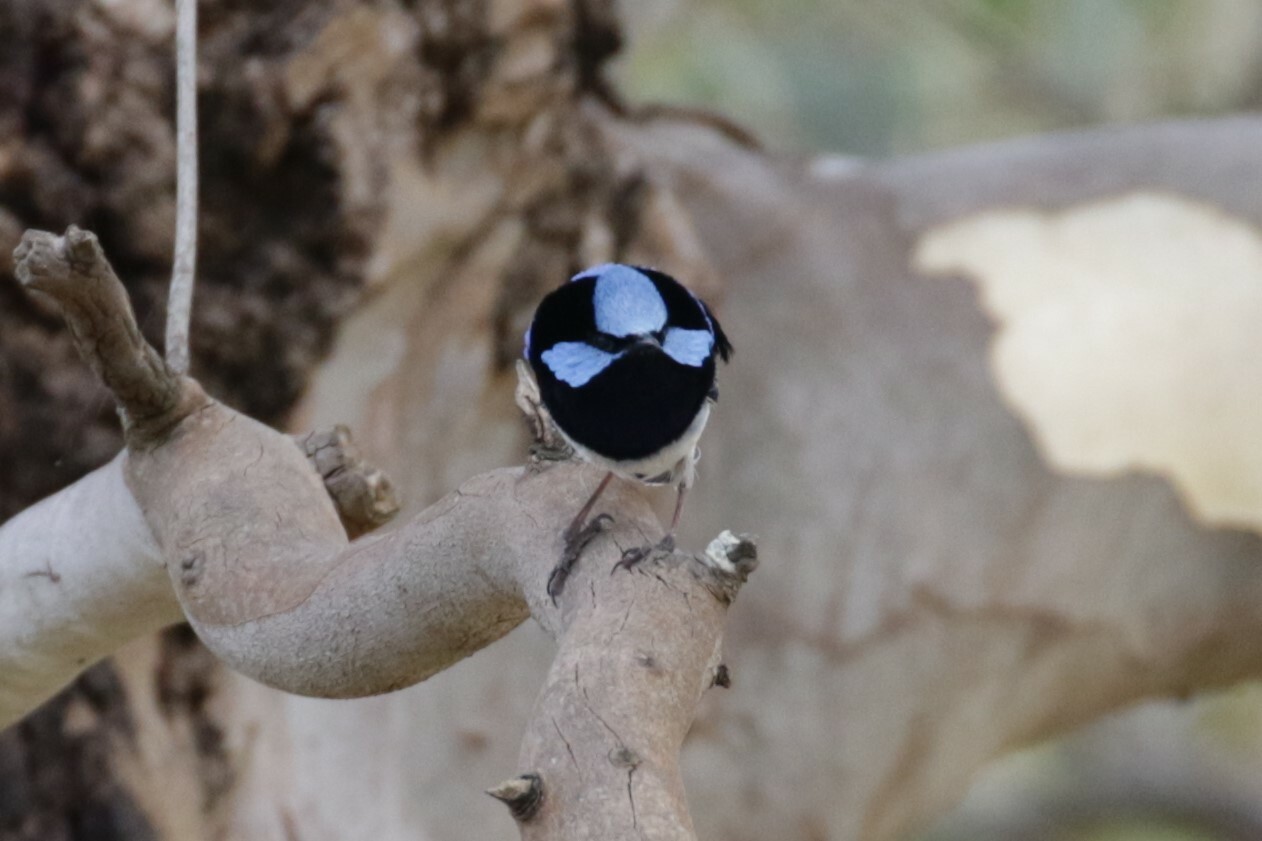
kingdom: Animalia
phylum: Chordata
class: Aves
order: Passeriformes
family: Maluridae
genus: Malurus
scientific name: Malurus cyaneus
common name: Superb fairywren
